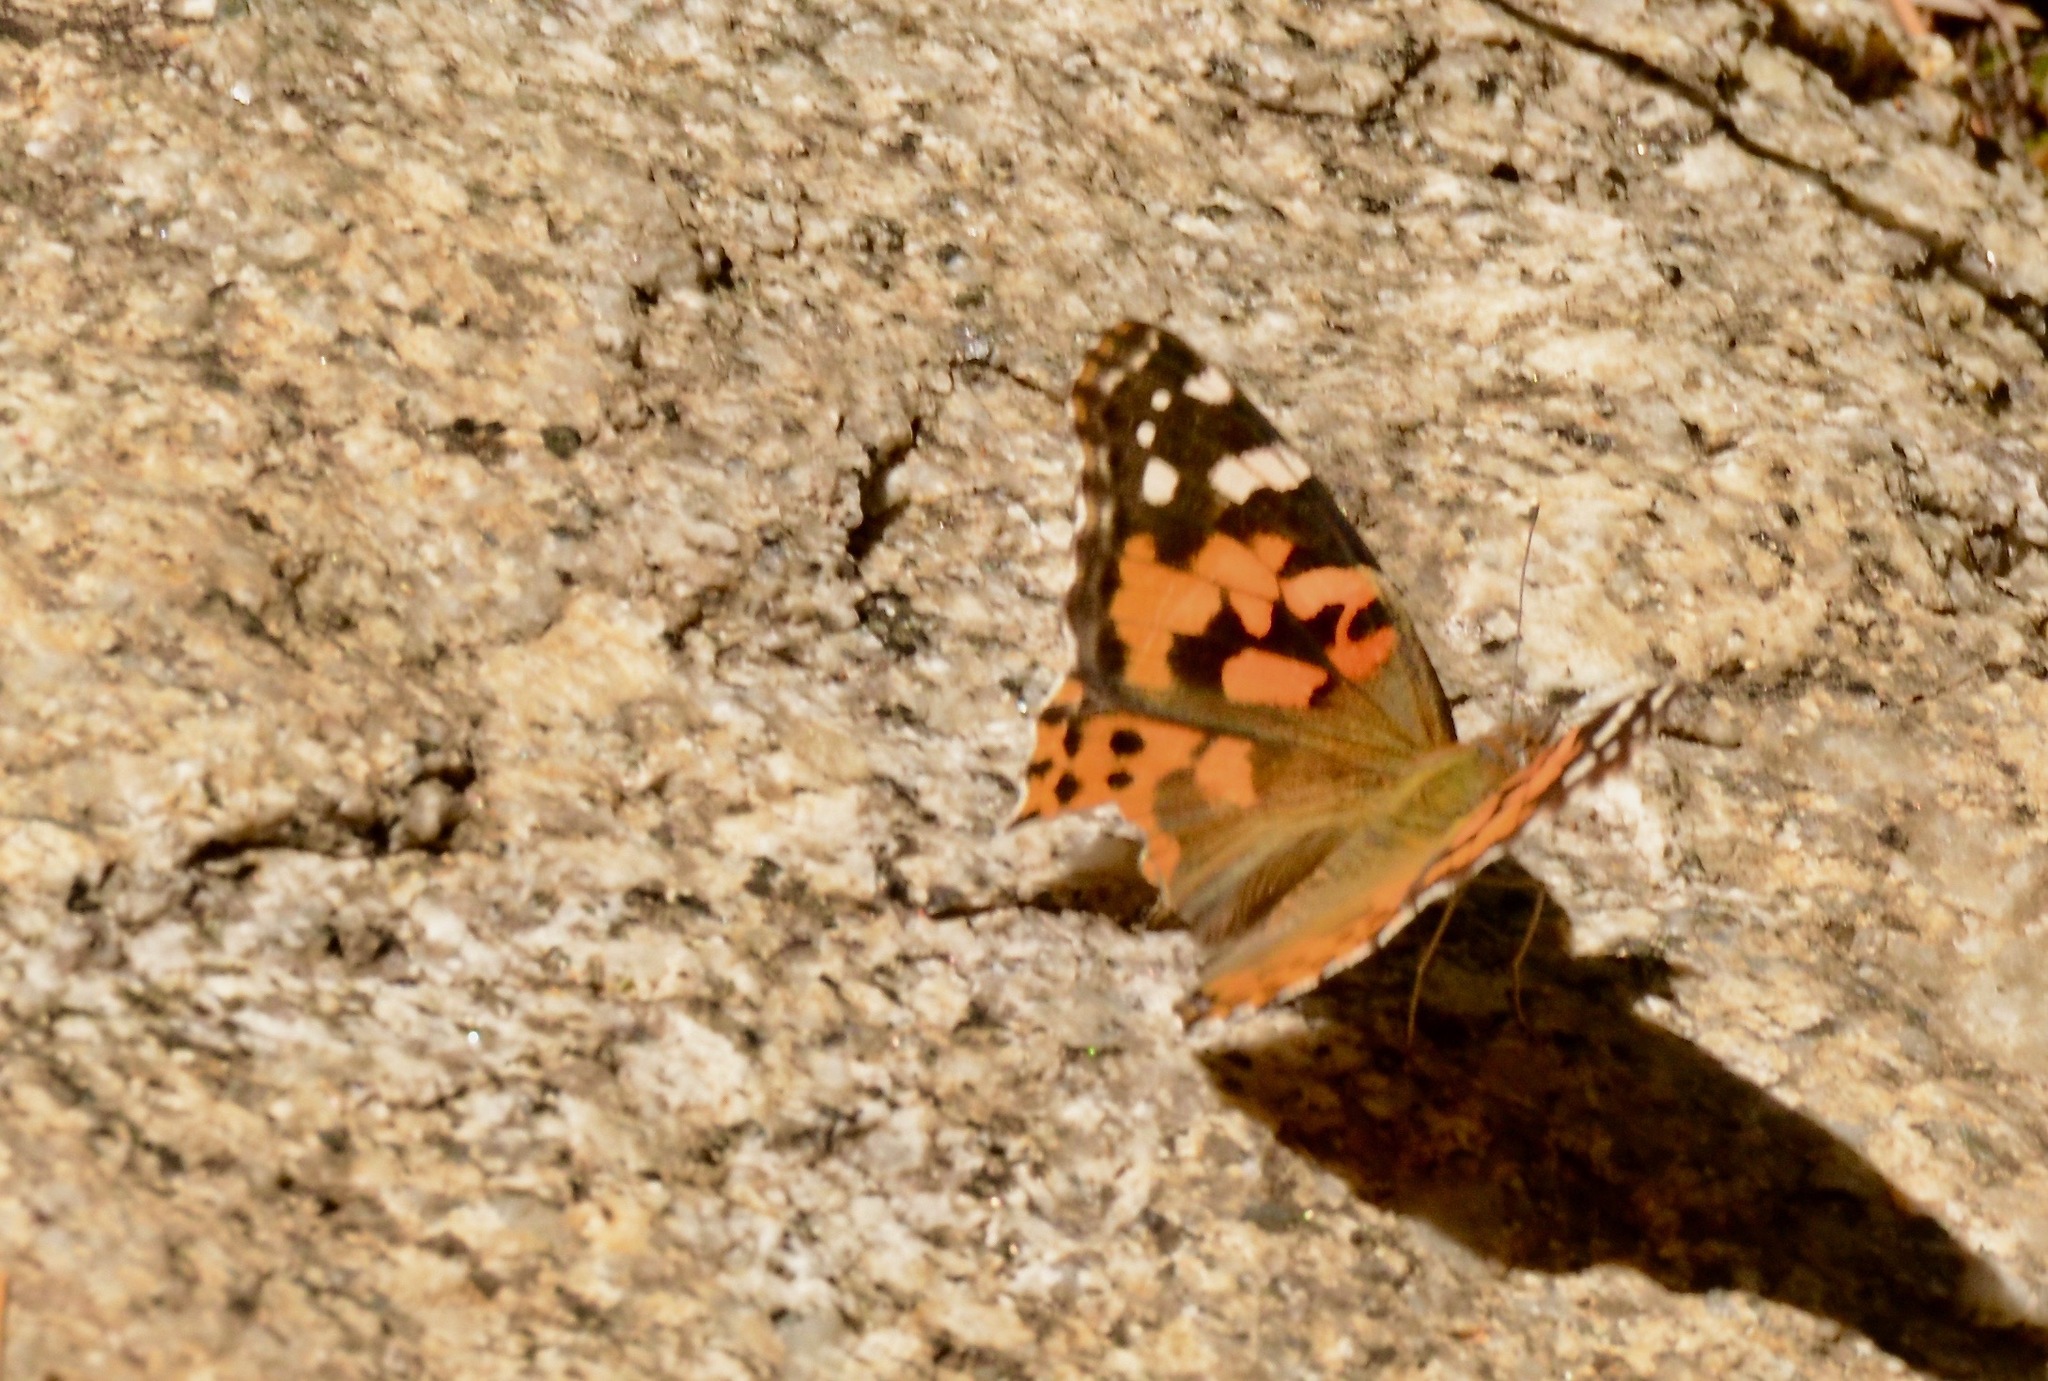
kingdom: Animalia
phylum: Arthropoda
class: Insecta
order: Lepidoptera
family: Nymphalidae
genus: Vanessa
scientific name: Vanessa cardui
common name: Painted lady
